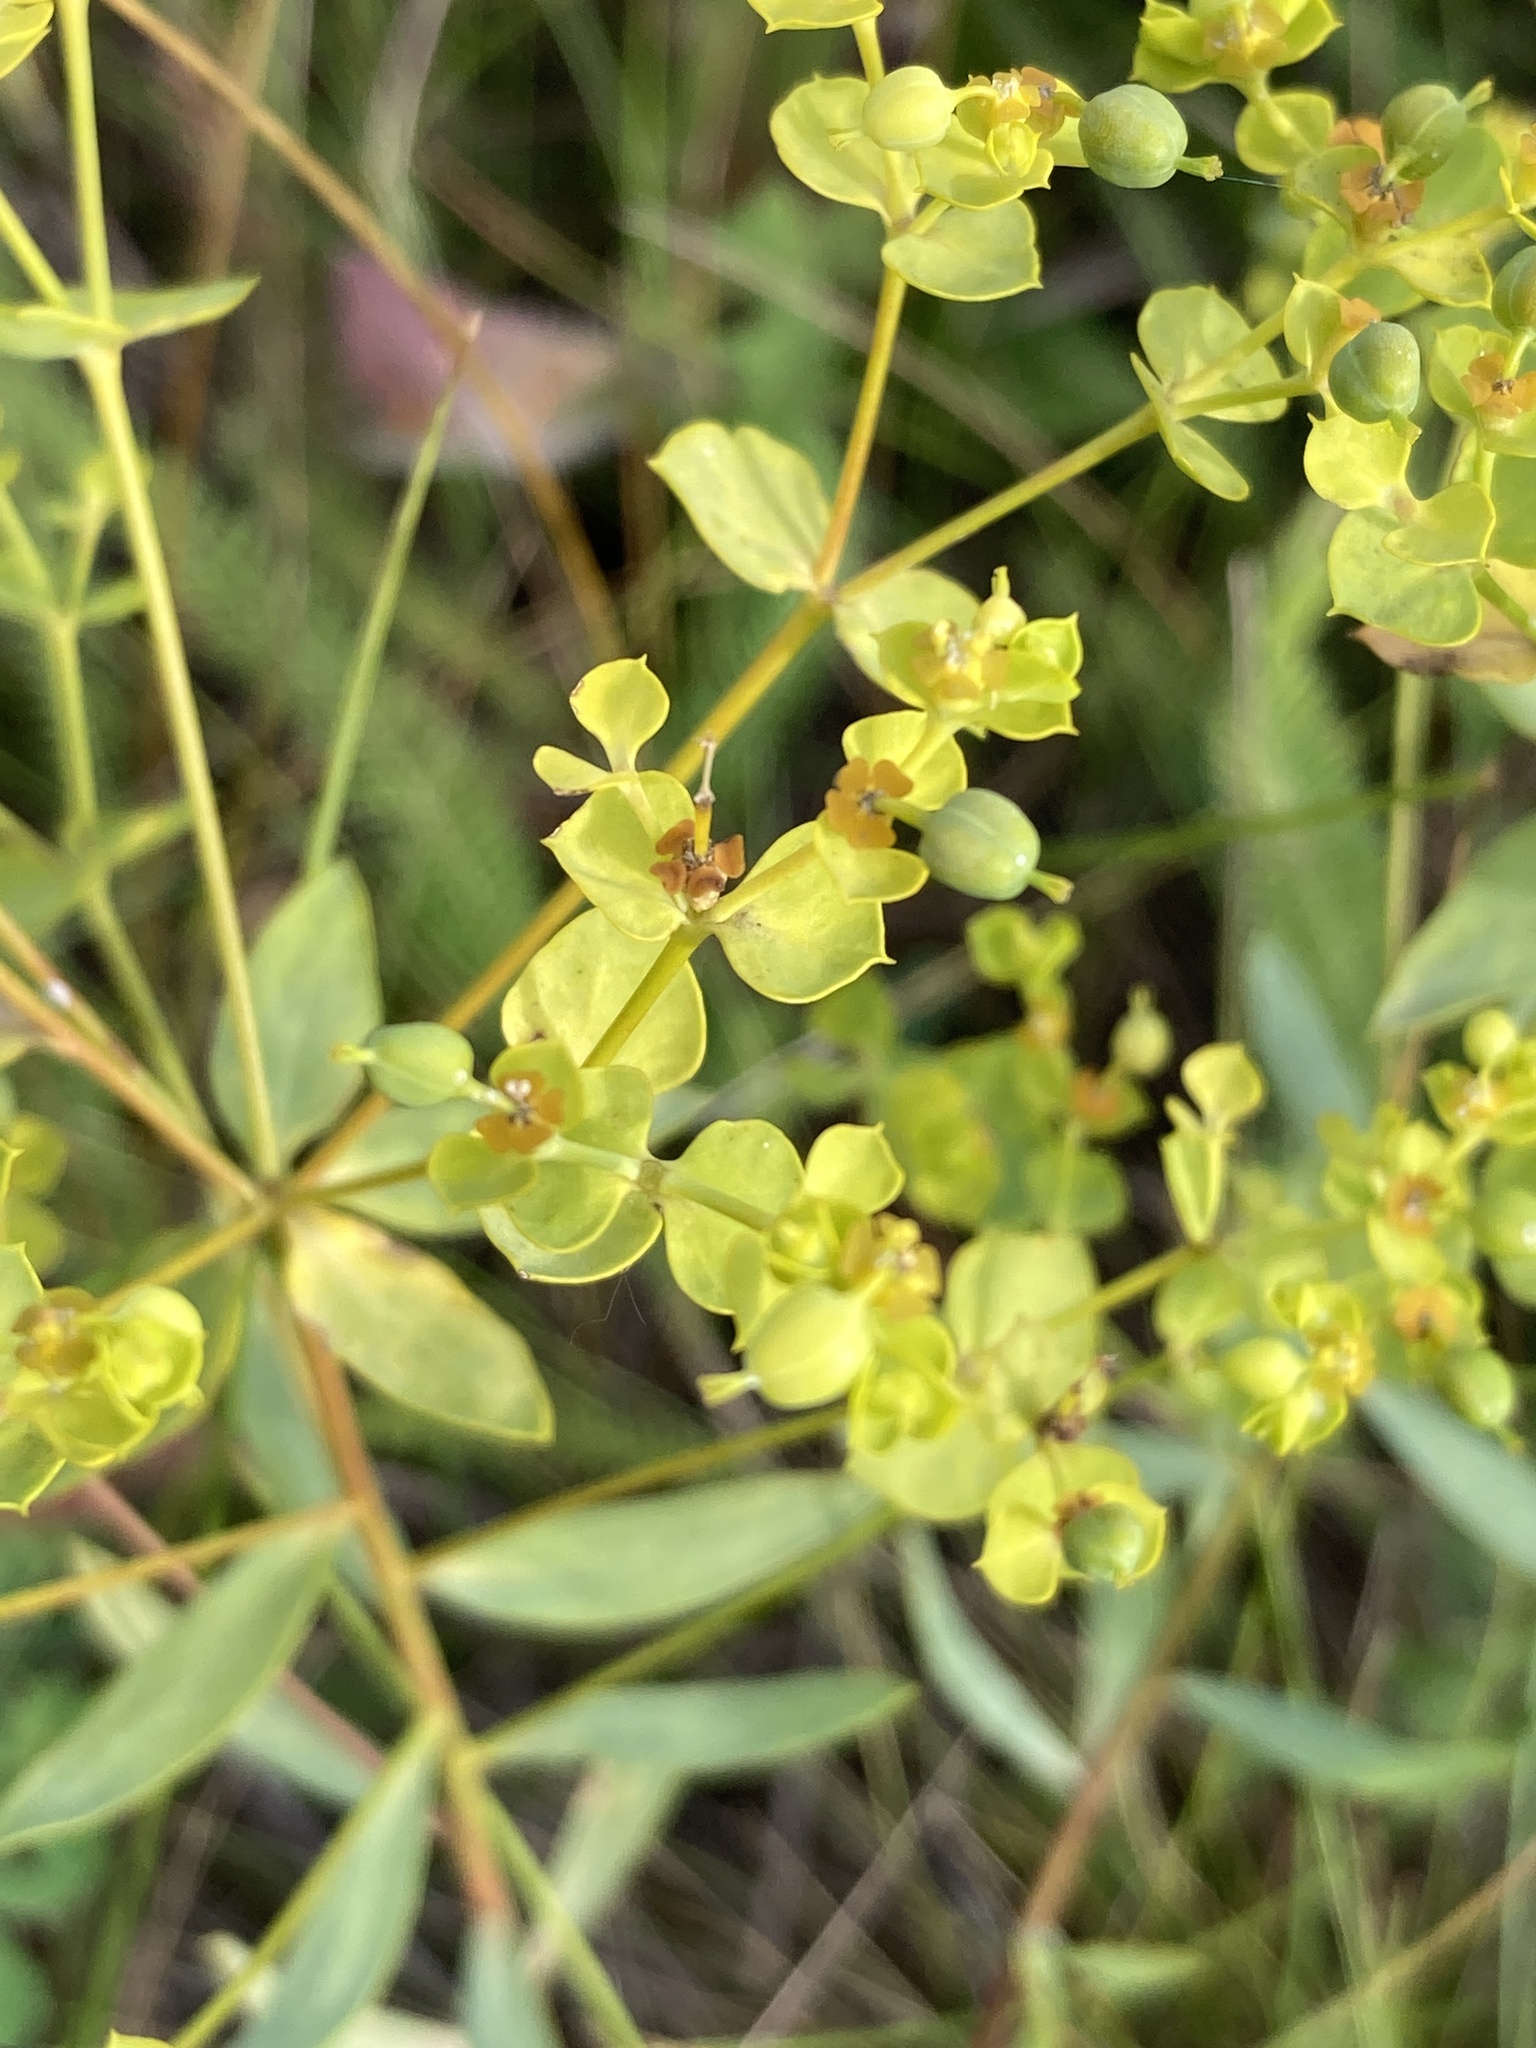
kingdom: Plantae
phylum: Tracheophyta
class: Magnoliopsida
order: Malpighiales
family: Euphorbiaceae
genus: Euphorbia
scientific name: Euphorbia seguieriana
